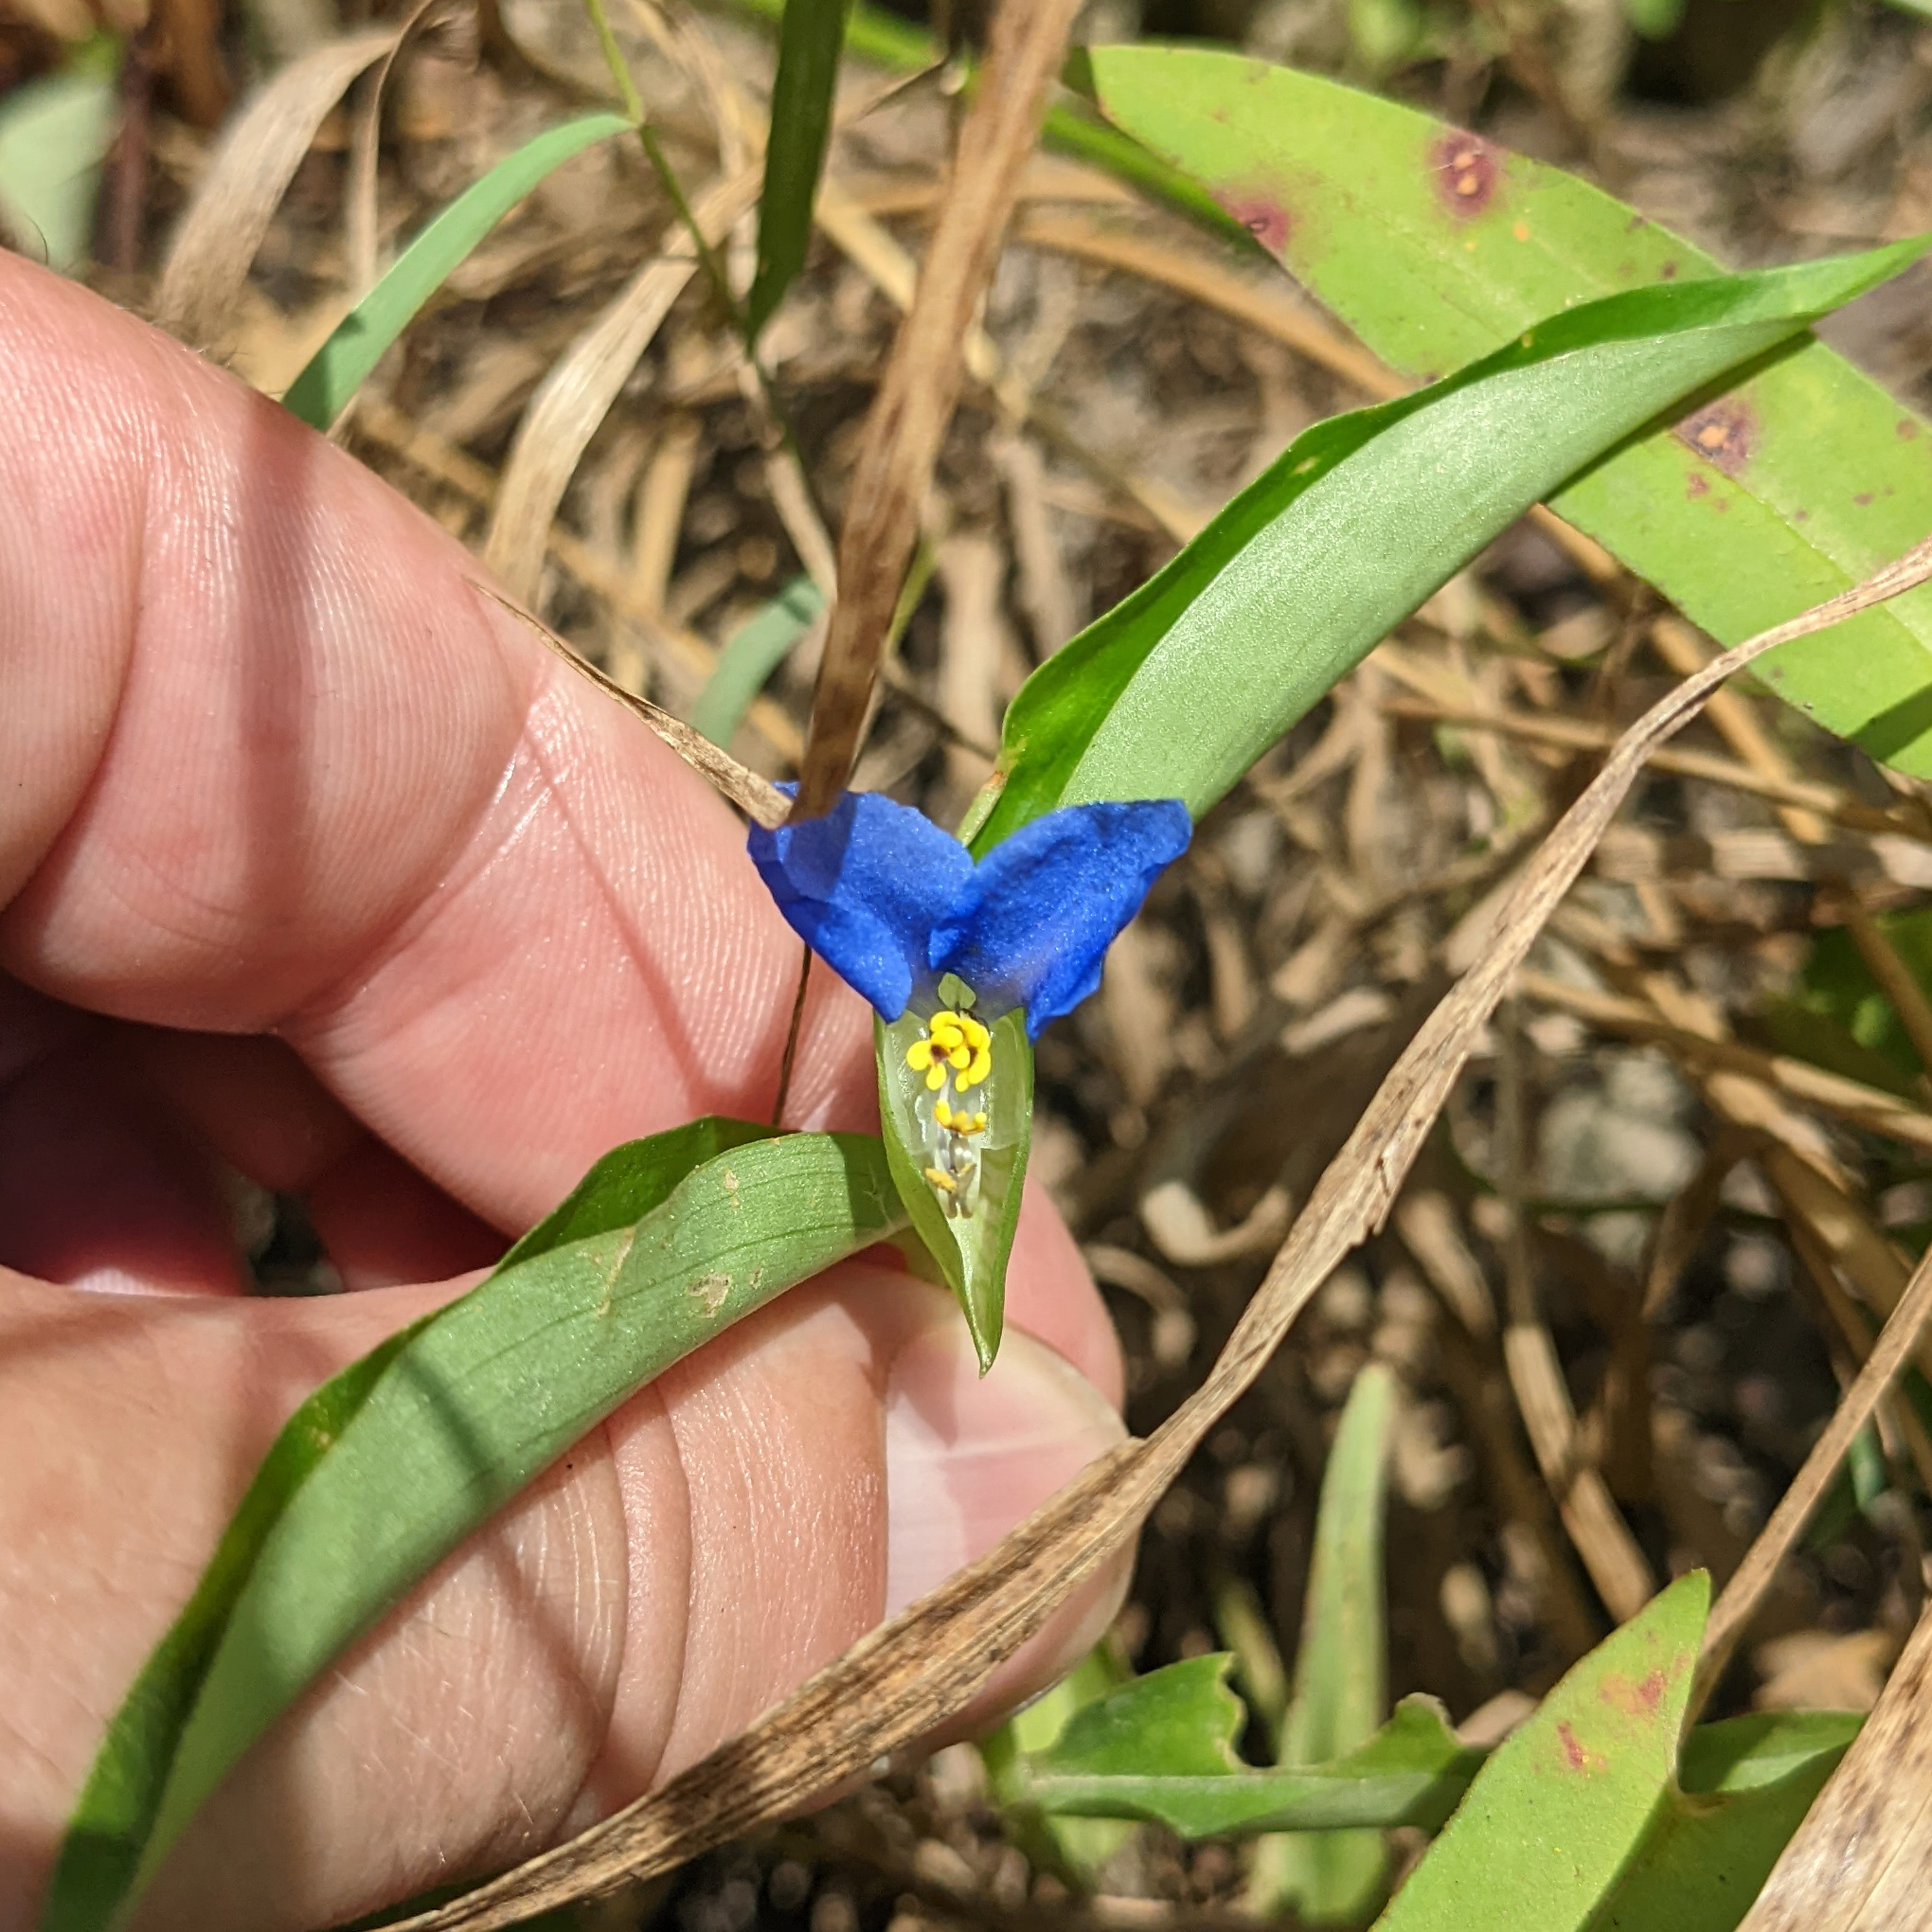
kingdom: Plantae
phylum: Tracheophyta
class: Liliopsida
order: Commelinales
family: Commelinaceae
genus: Commelina
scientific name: Commelina communis
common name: Asiatic dayflower
